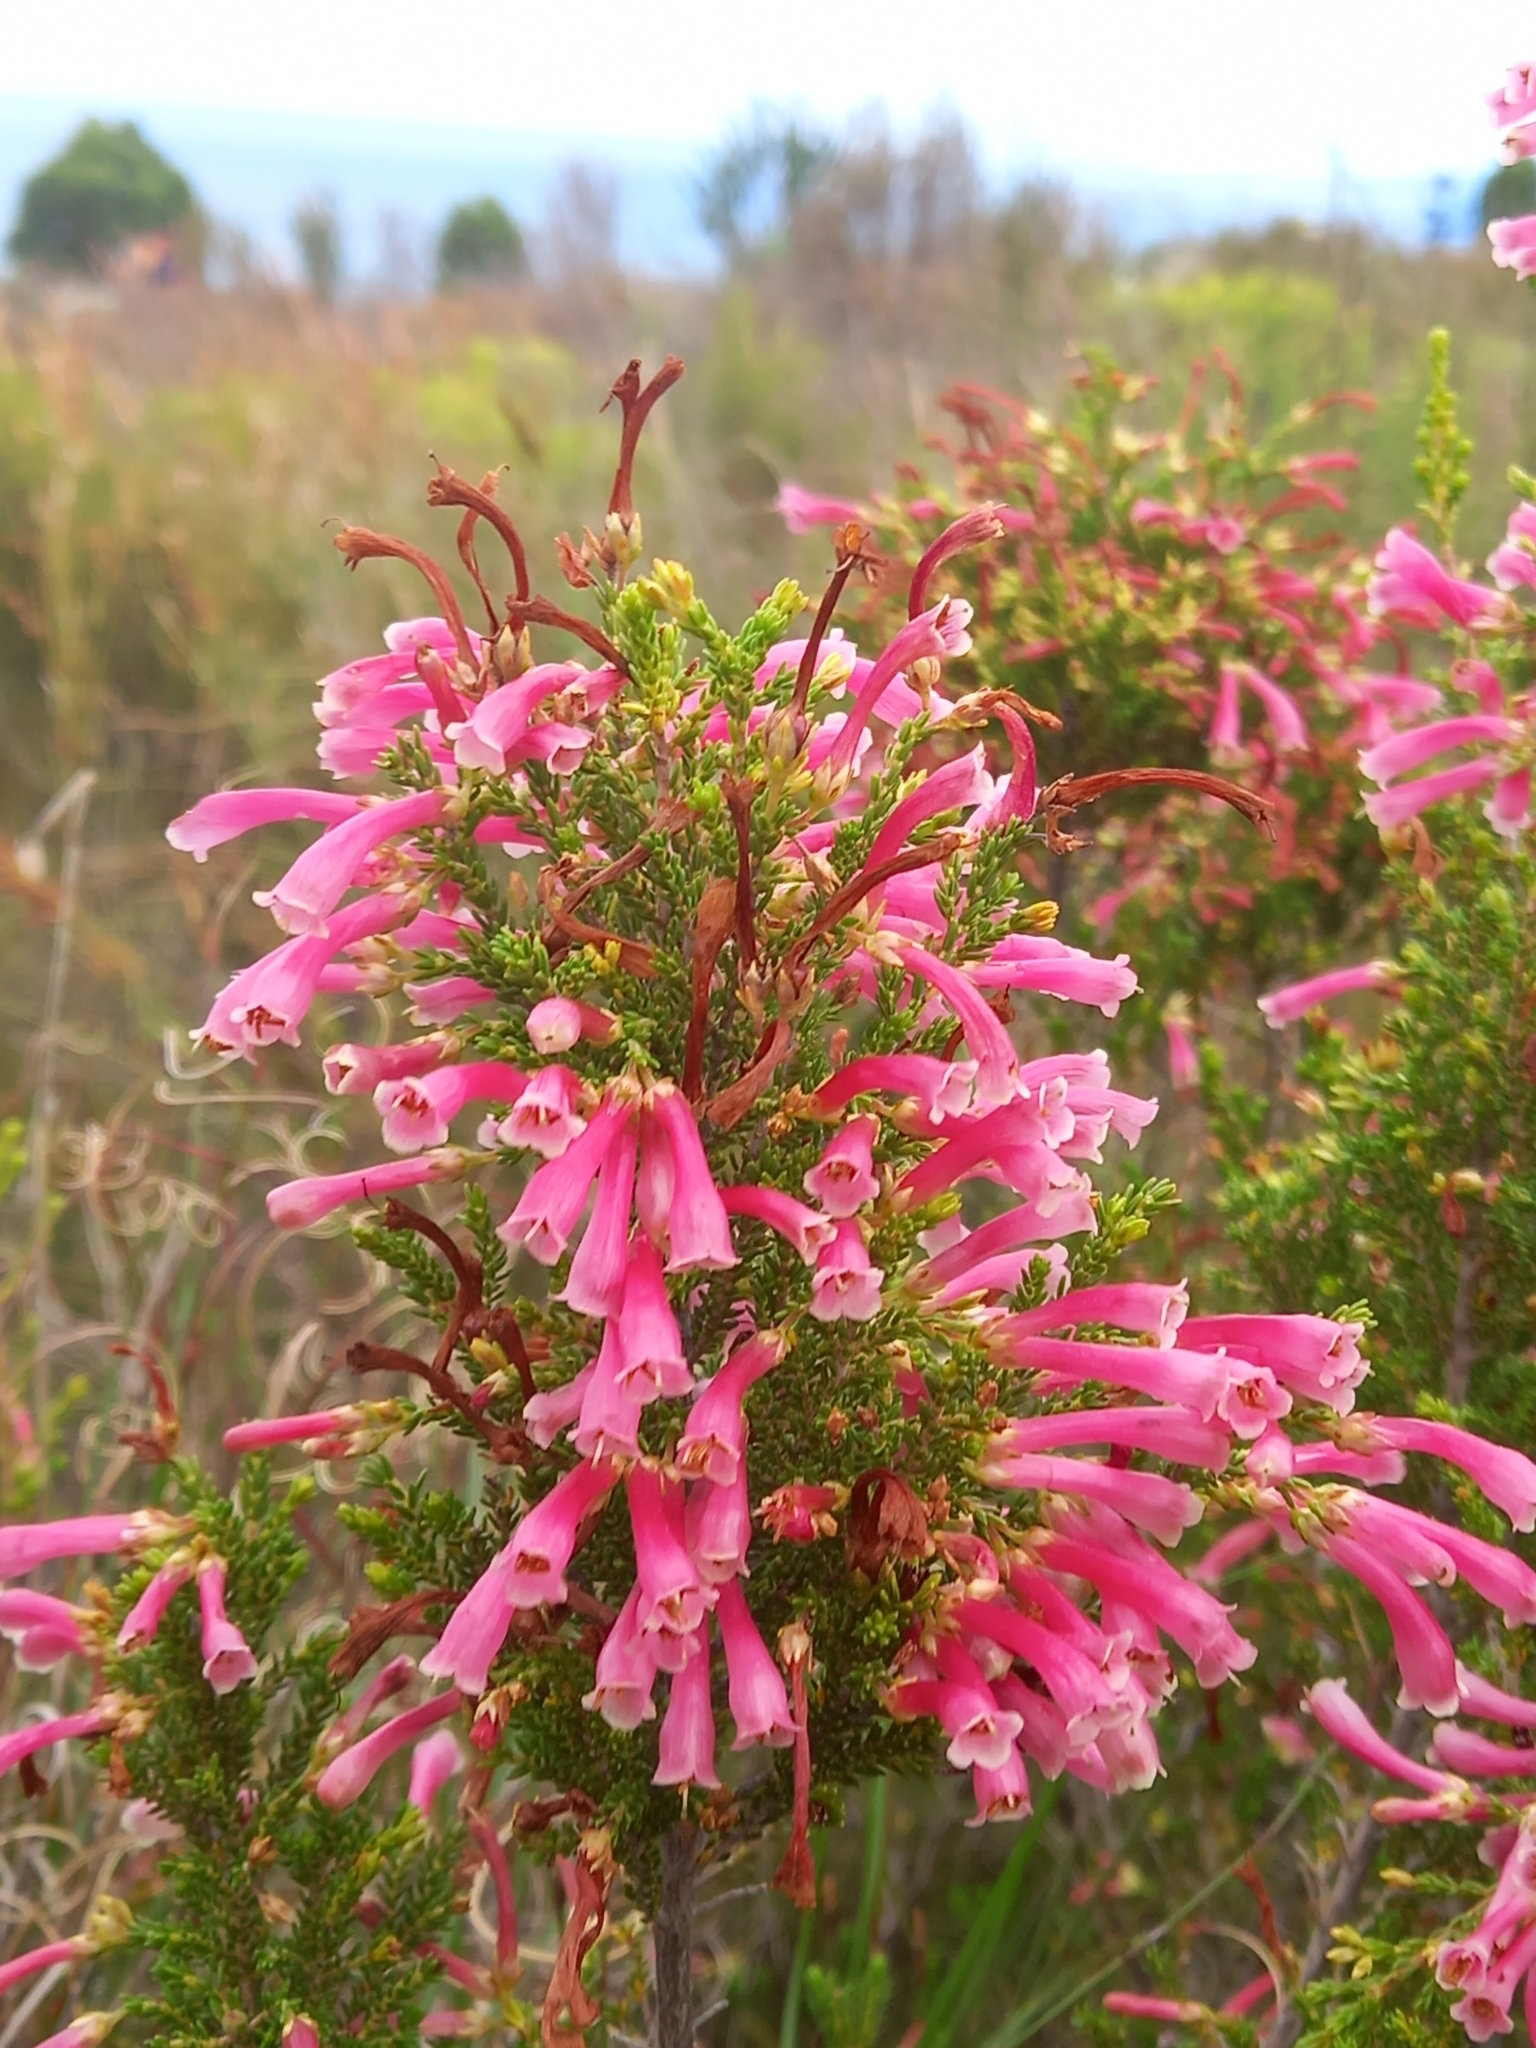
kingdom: Plantae
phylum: Tracheophyta
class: Magnoliopsida
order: Ericales
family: Ericaceae
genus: Erica
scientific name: Erica discolor
